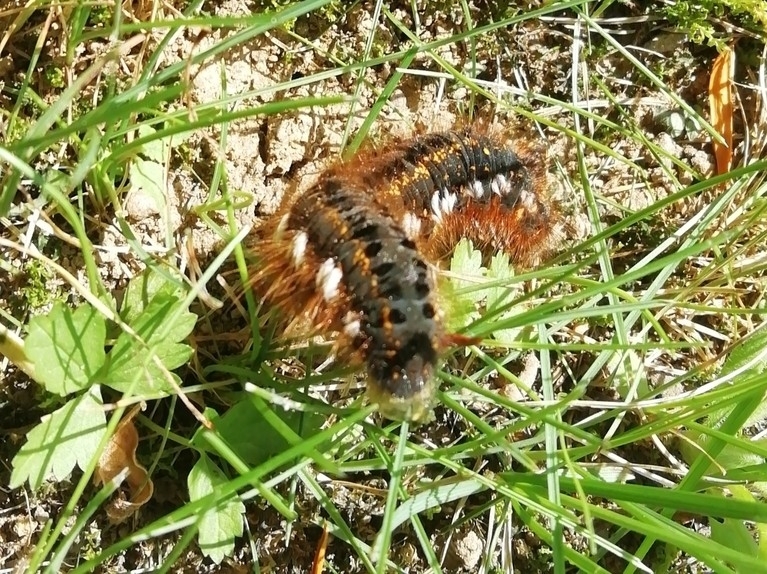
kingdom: Animalia
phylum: Arthropoda
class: Insecta
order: Lepidoptera
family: Lasiocampidae
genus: Euthrix
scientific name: Euthrix potatoria
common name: Drinker
